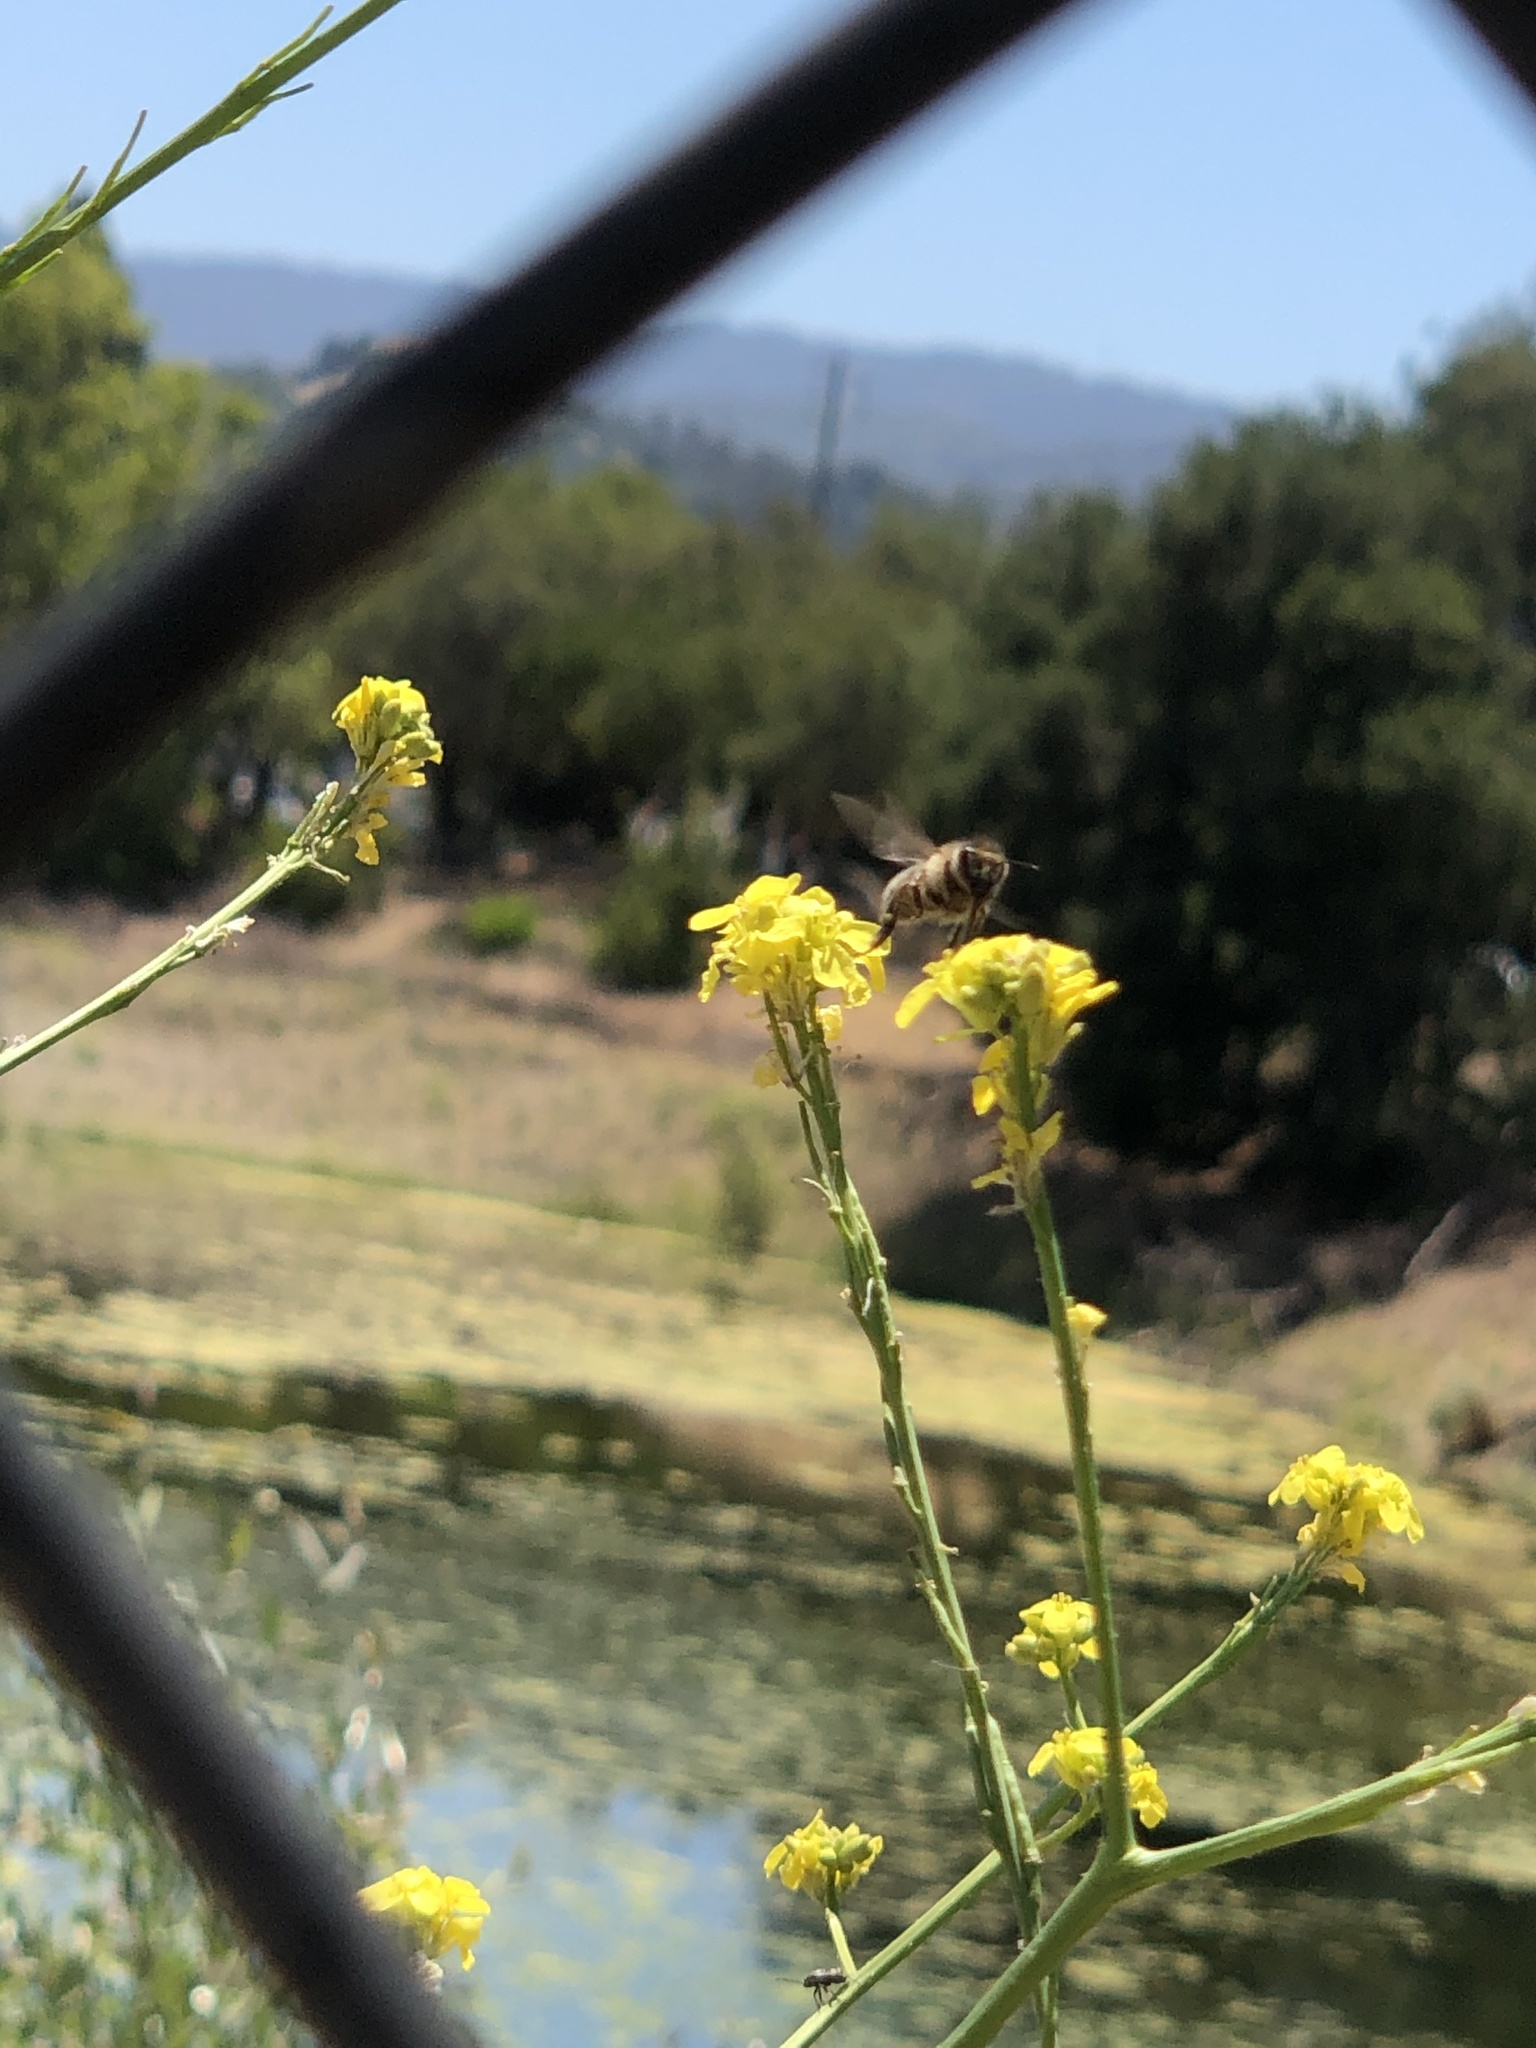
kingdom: Animalia
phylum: Arthropoda
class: Insecta
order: Hymenoptera
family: Apidae
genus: Apis
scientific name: Apis mellifera
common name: Honey bee
